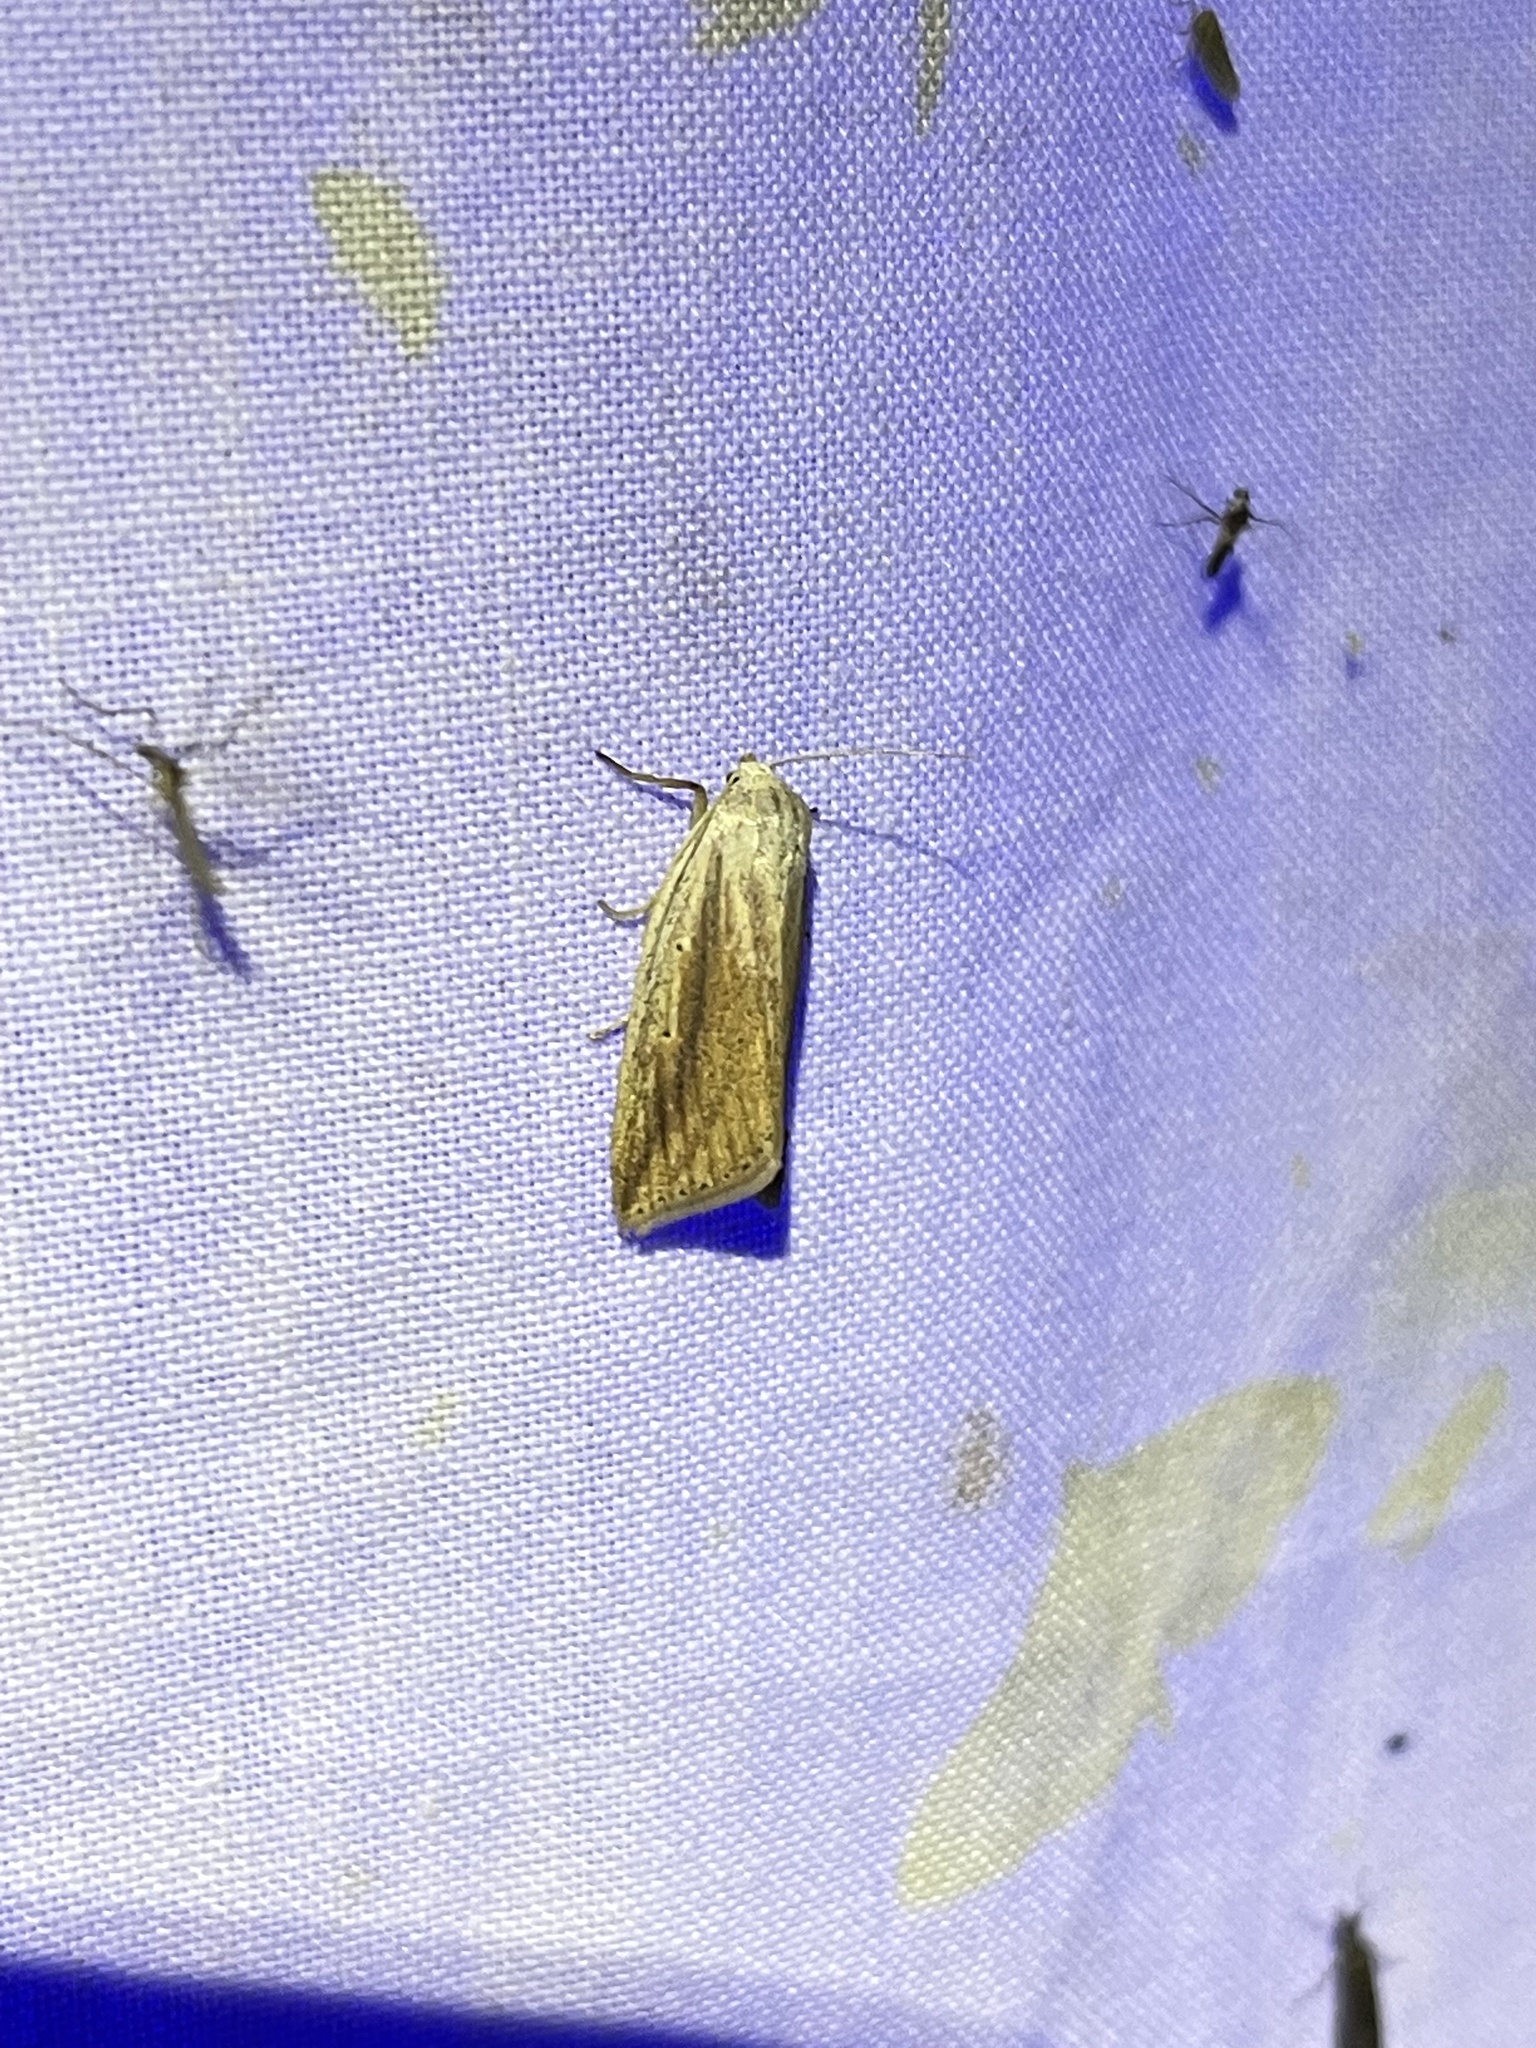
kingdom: Animalia
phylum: Arthropoda
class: Insecta
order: Lepidoptera
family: Noctuidae
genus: Amolita
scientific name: Amolita fessa
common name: Feeble grass moth
